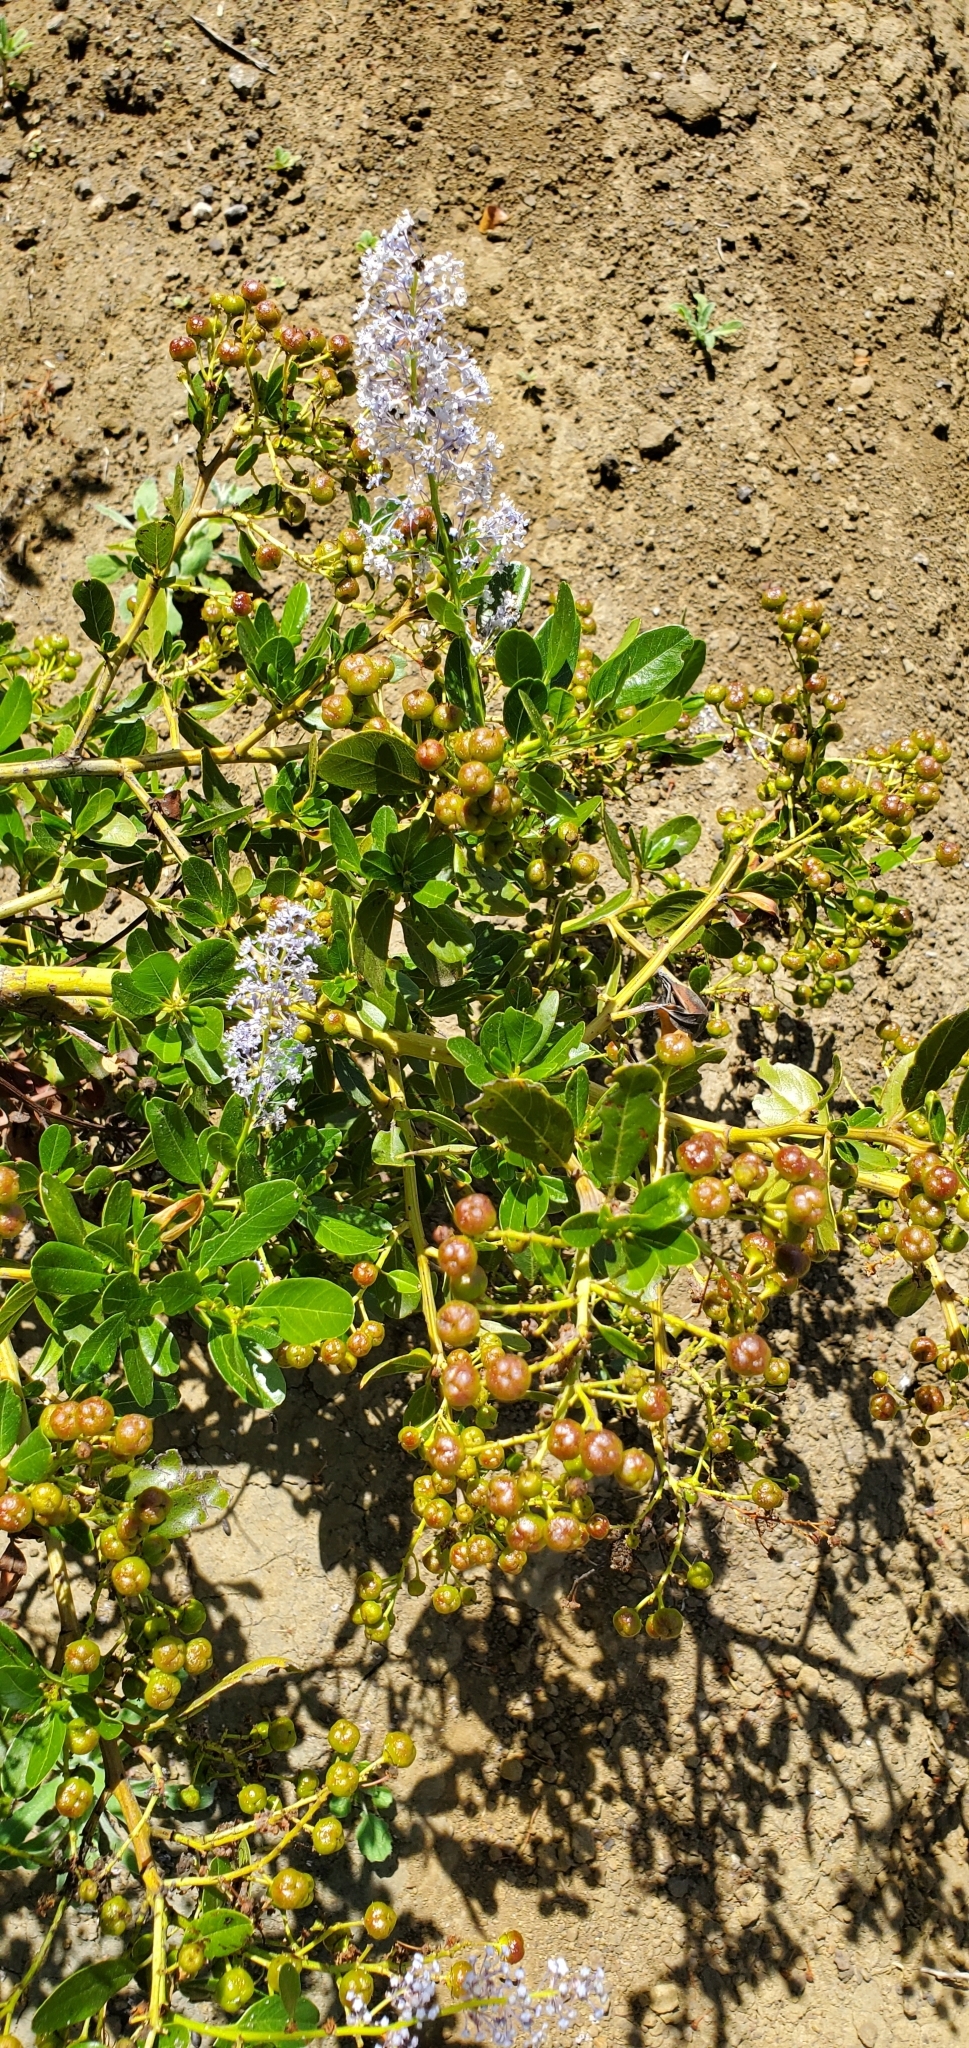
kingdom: Plantae
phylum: Tracheophyta
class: Magnoliopsida
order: Rosales
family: Rhamnaceae
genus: Ceanothus
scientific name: Ceanothus spinosus
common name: Greenbark whitethorn
